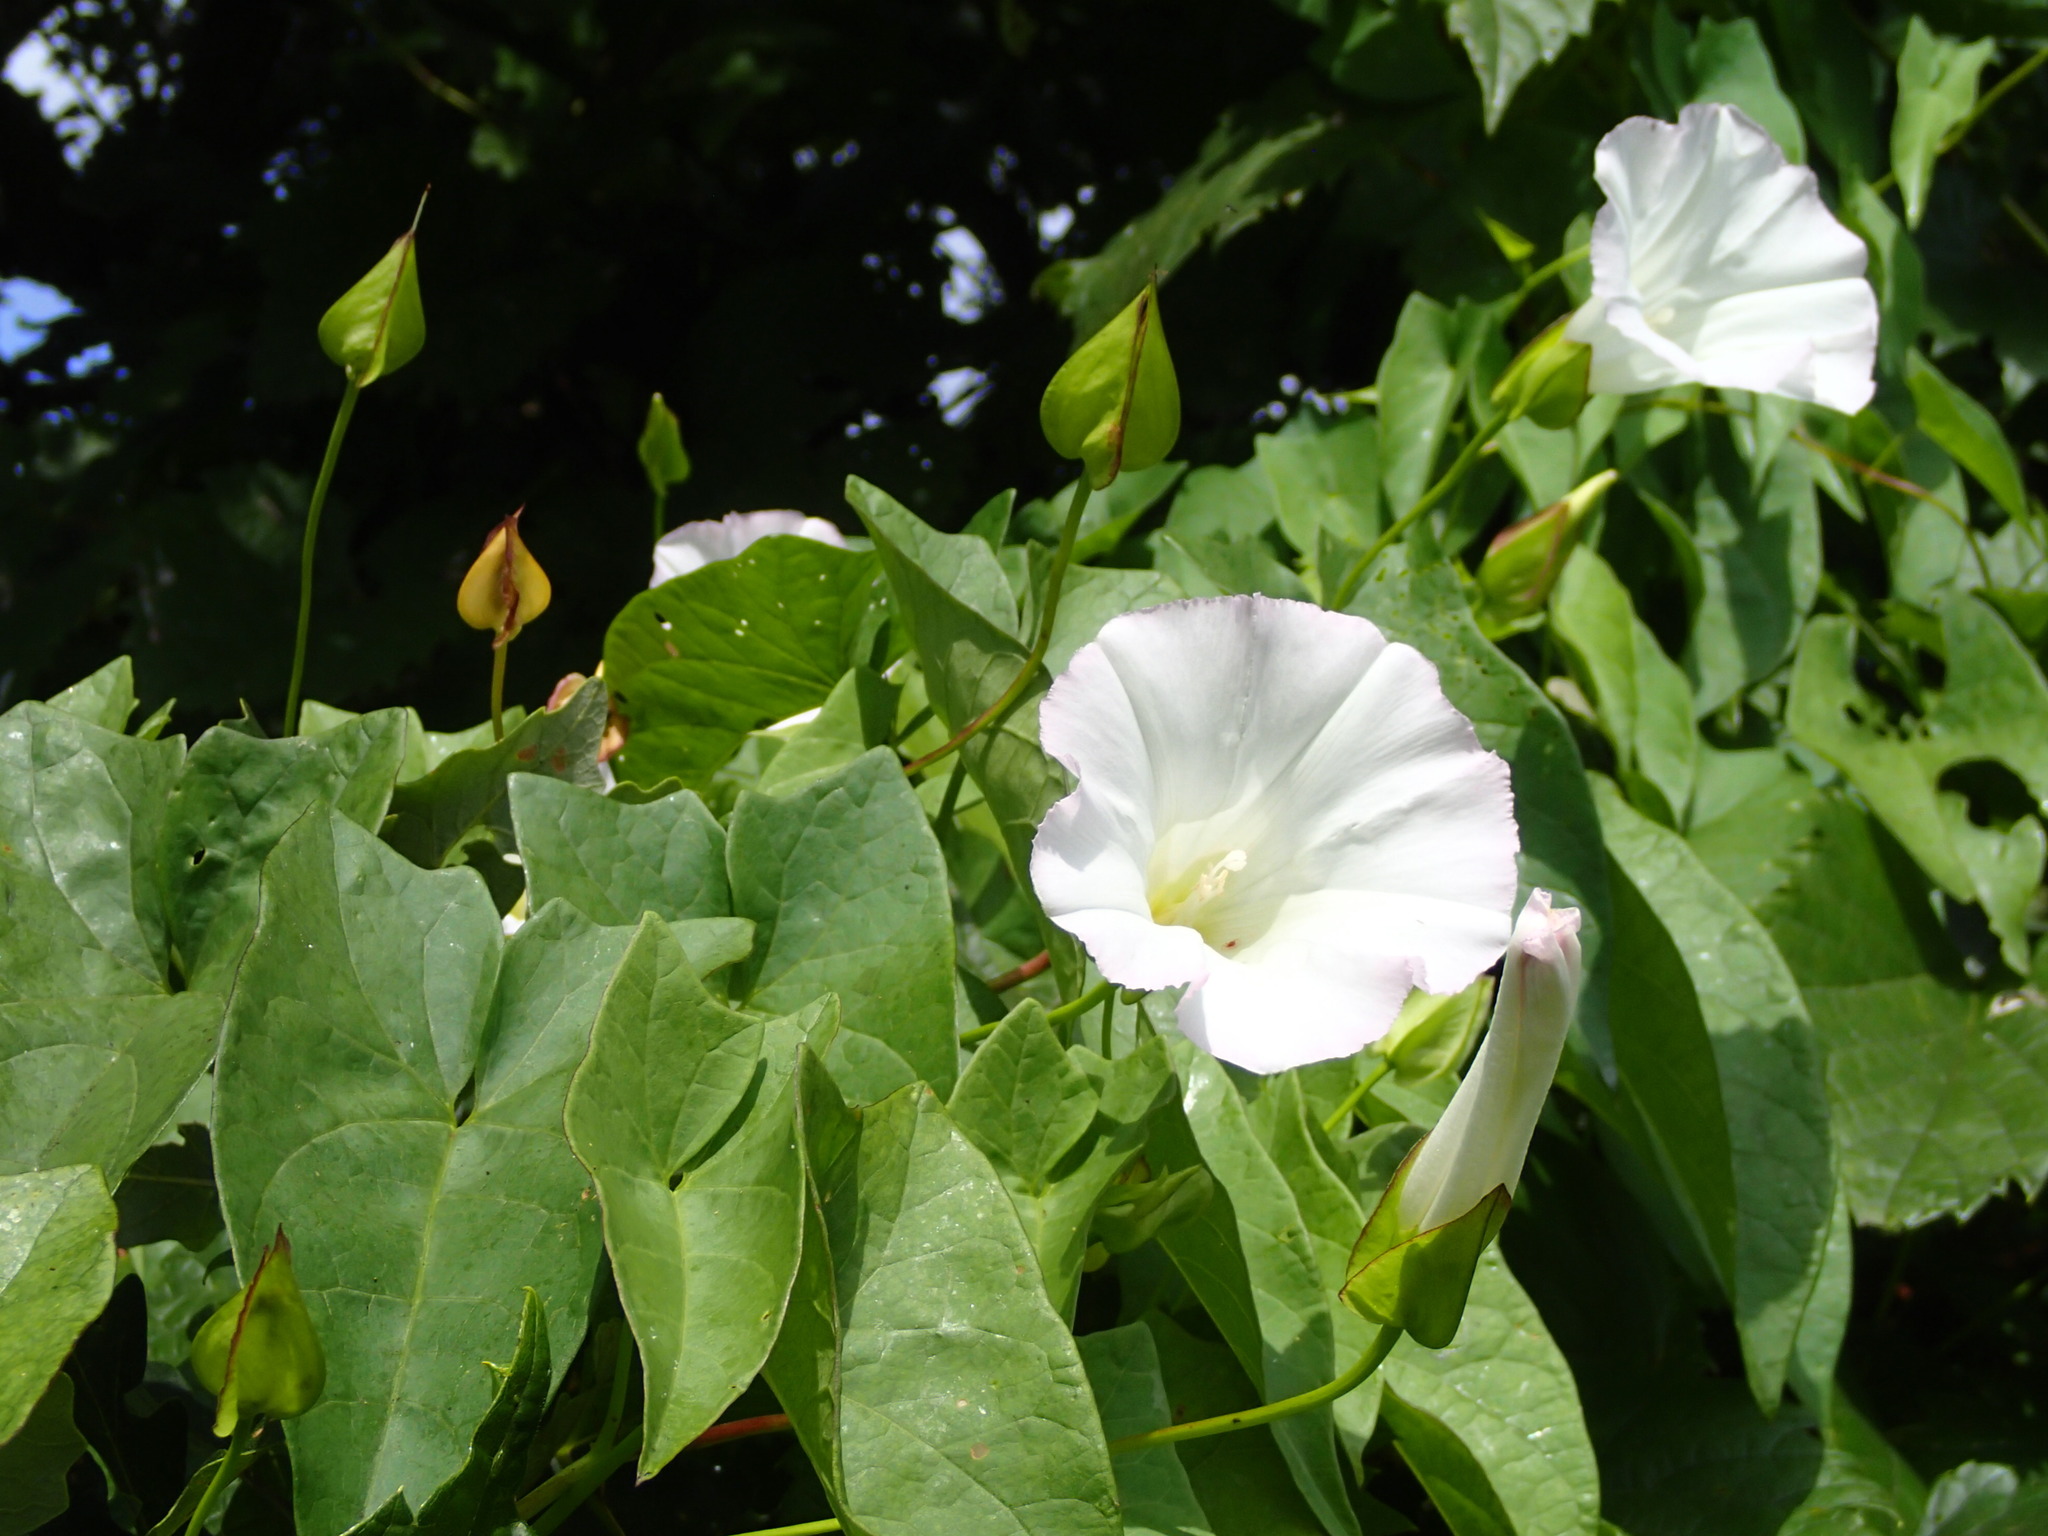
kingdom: Plantae
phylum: Tracheophyta
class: Magnoliopsida
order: Solanales
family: Convolvulaceae
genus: Calystegia
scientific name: Calystegia sepium
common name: Hedge bindweed
